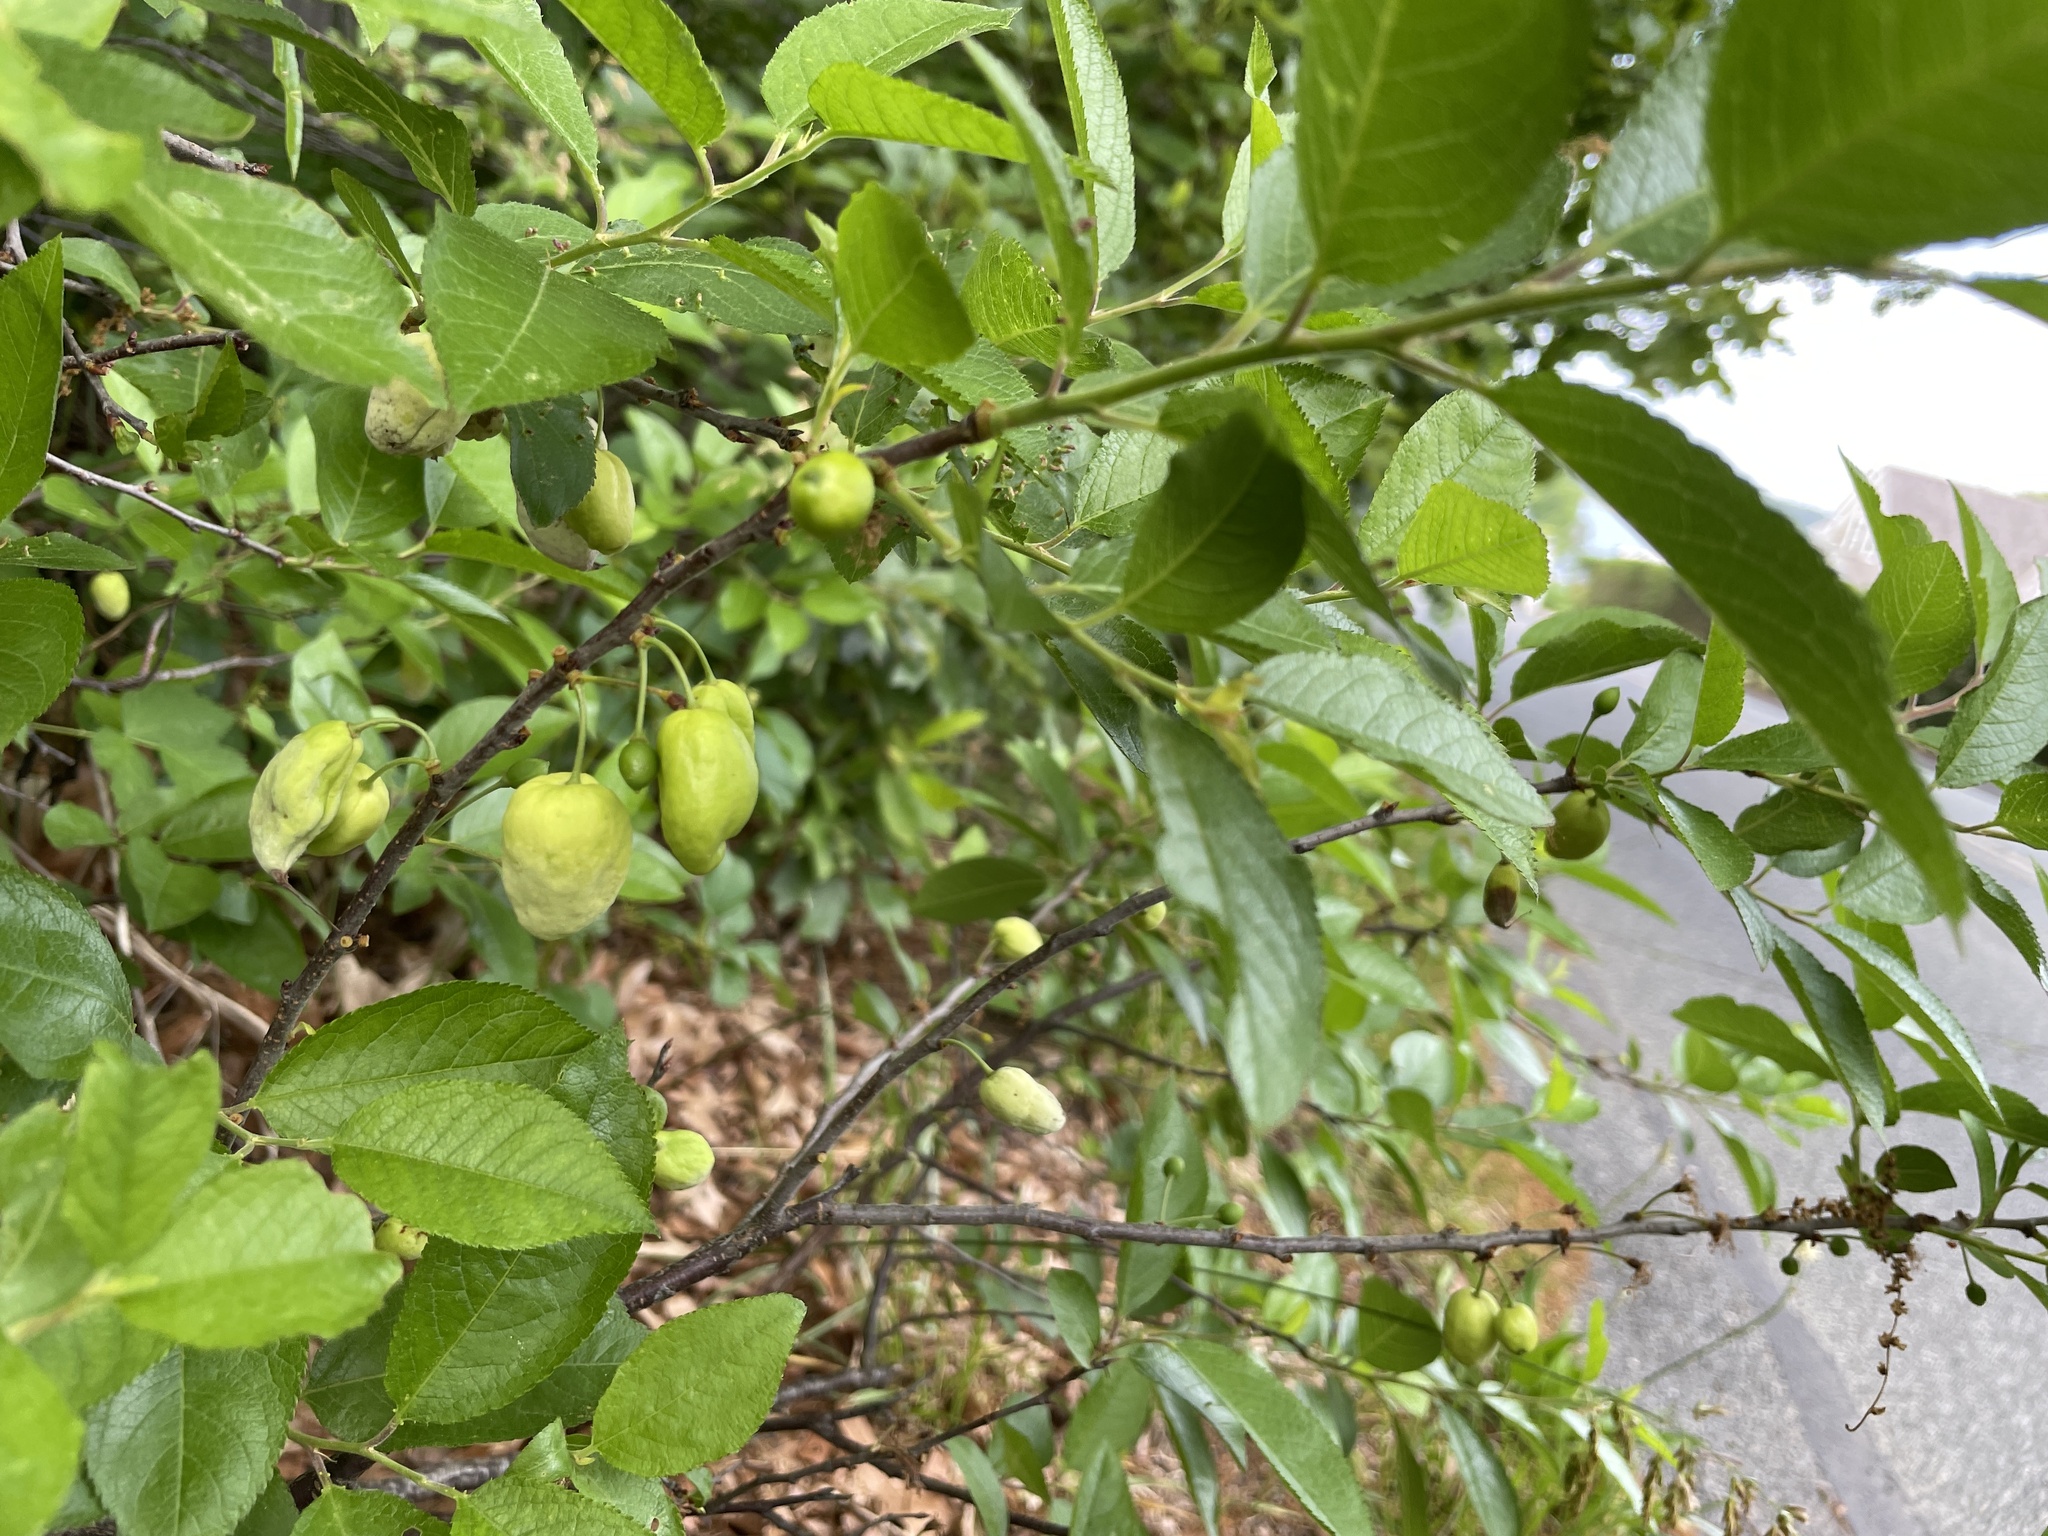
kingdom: Plantae
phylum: Tracheophyta
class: Magnoliopsida
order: Rosales
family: Rosaceae
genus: Prunus
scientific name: Prunus maritima
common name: Beach plum
